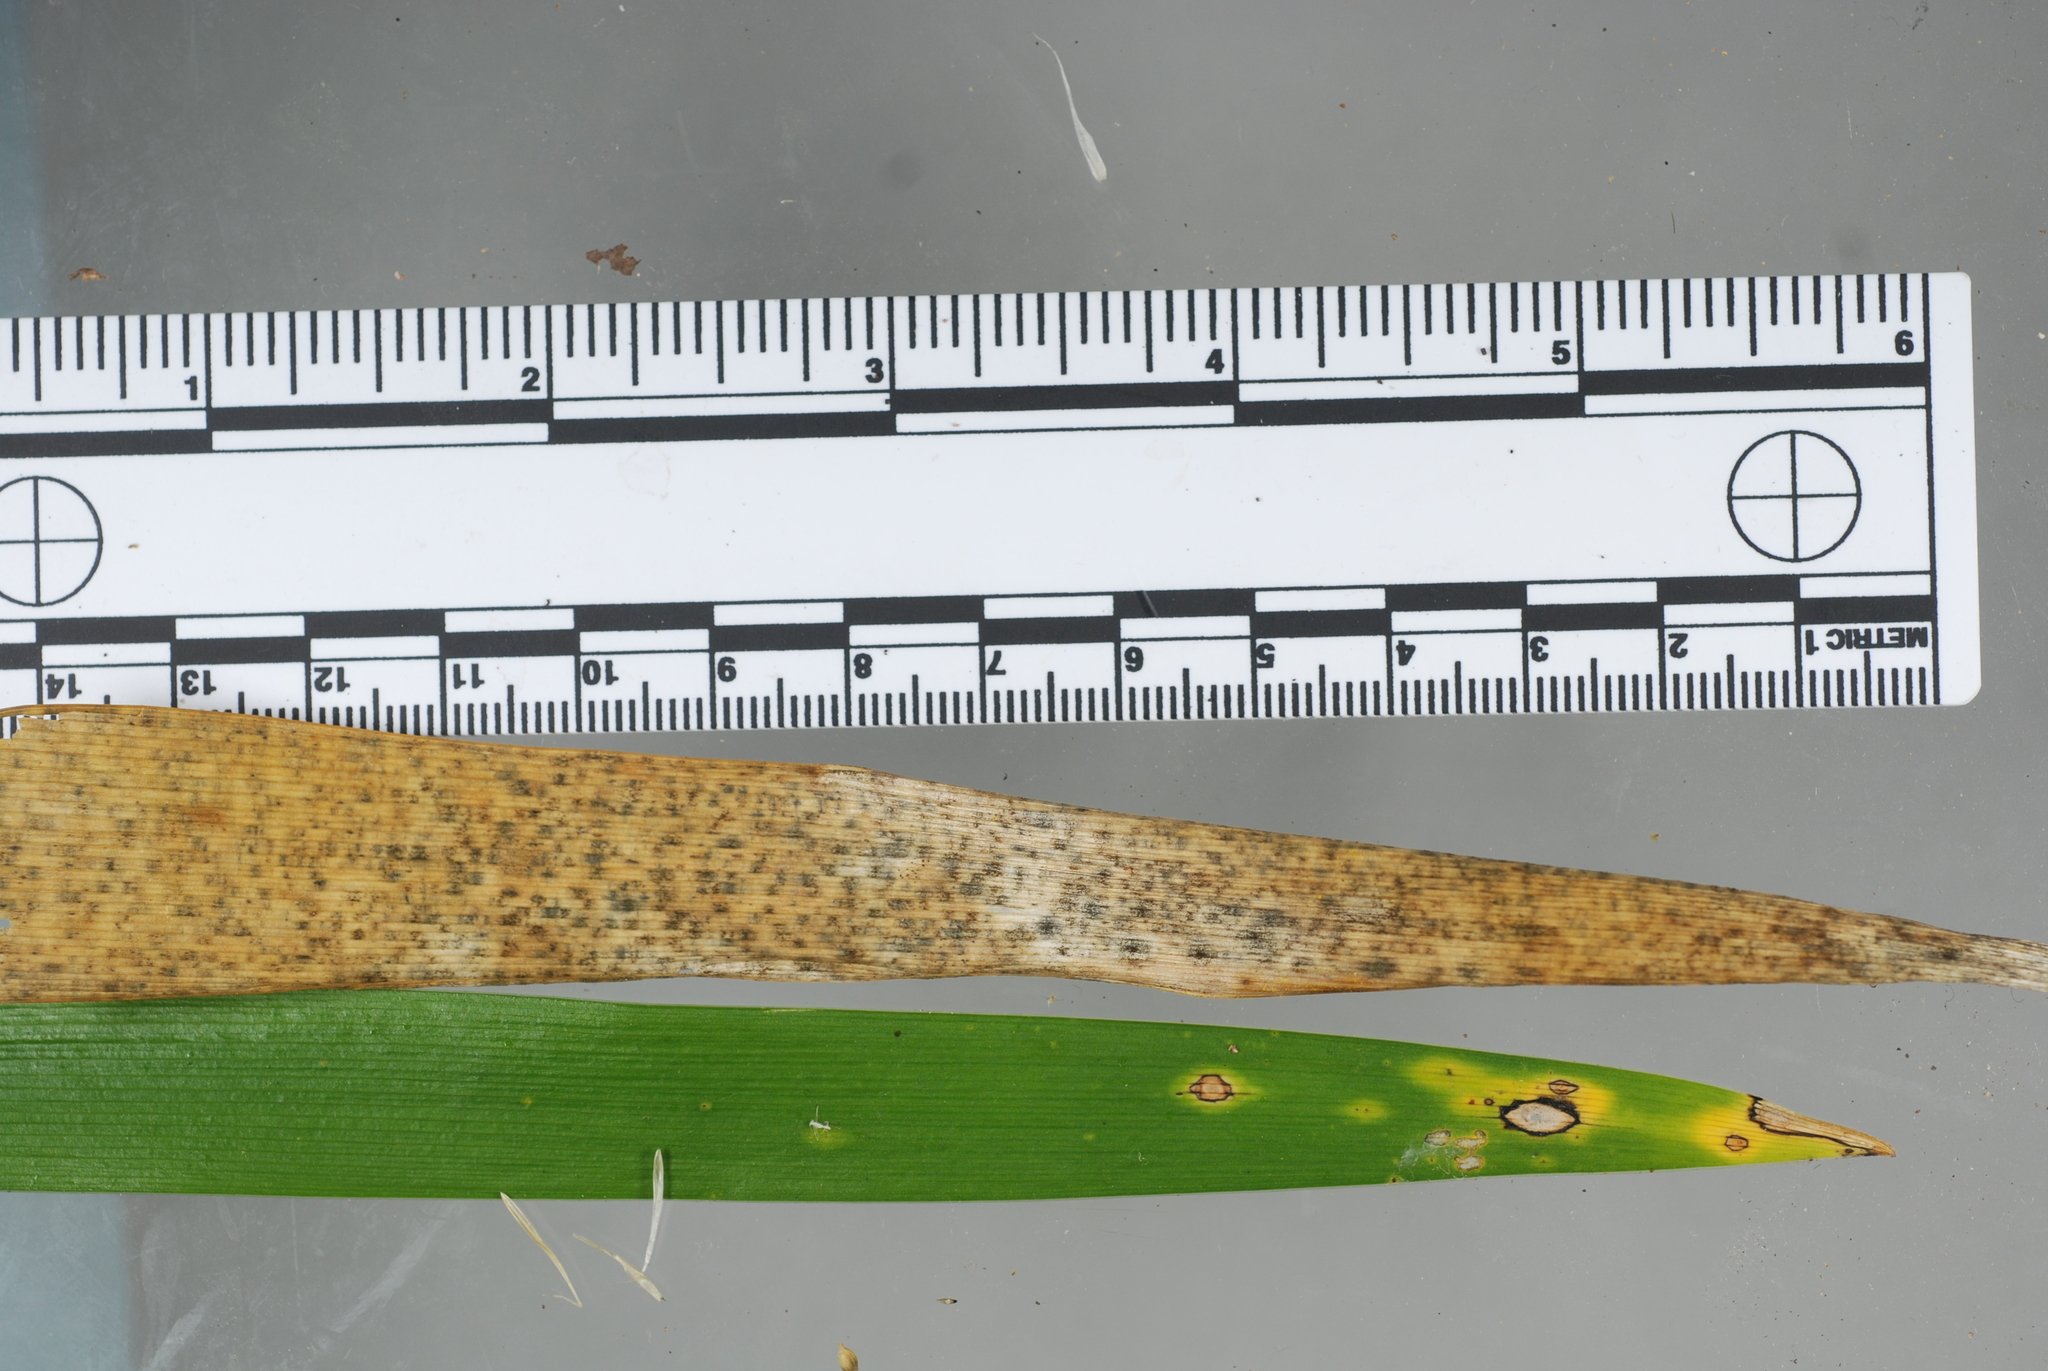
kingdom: Fungi
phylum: Ascomycota
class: Dothideomycetes
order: Capnodiales
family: Cladosporiaceae
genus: Cladosporium
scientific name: Cladosporium iridis
